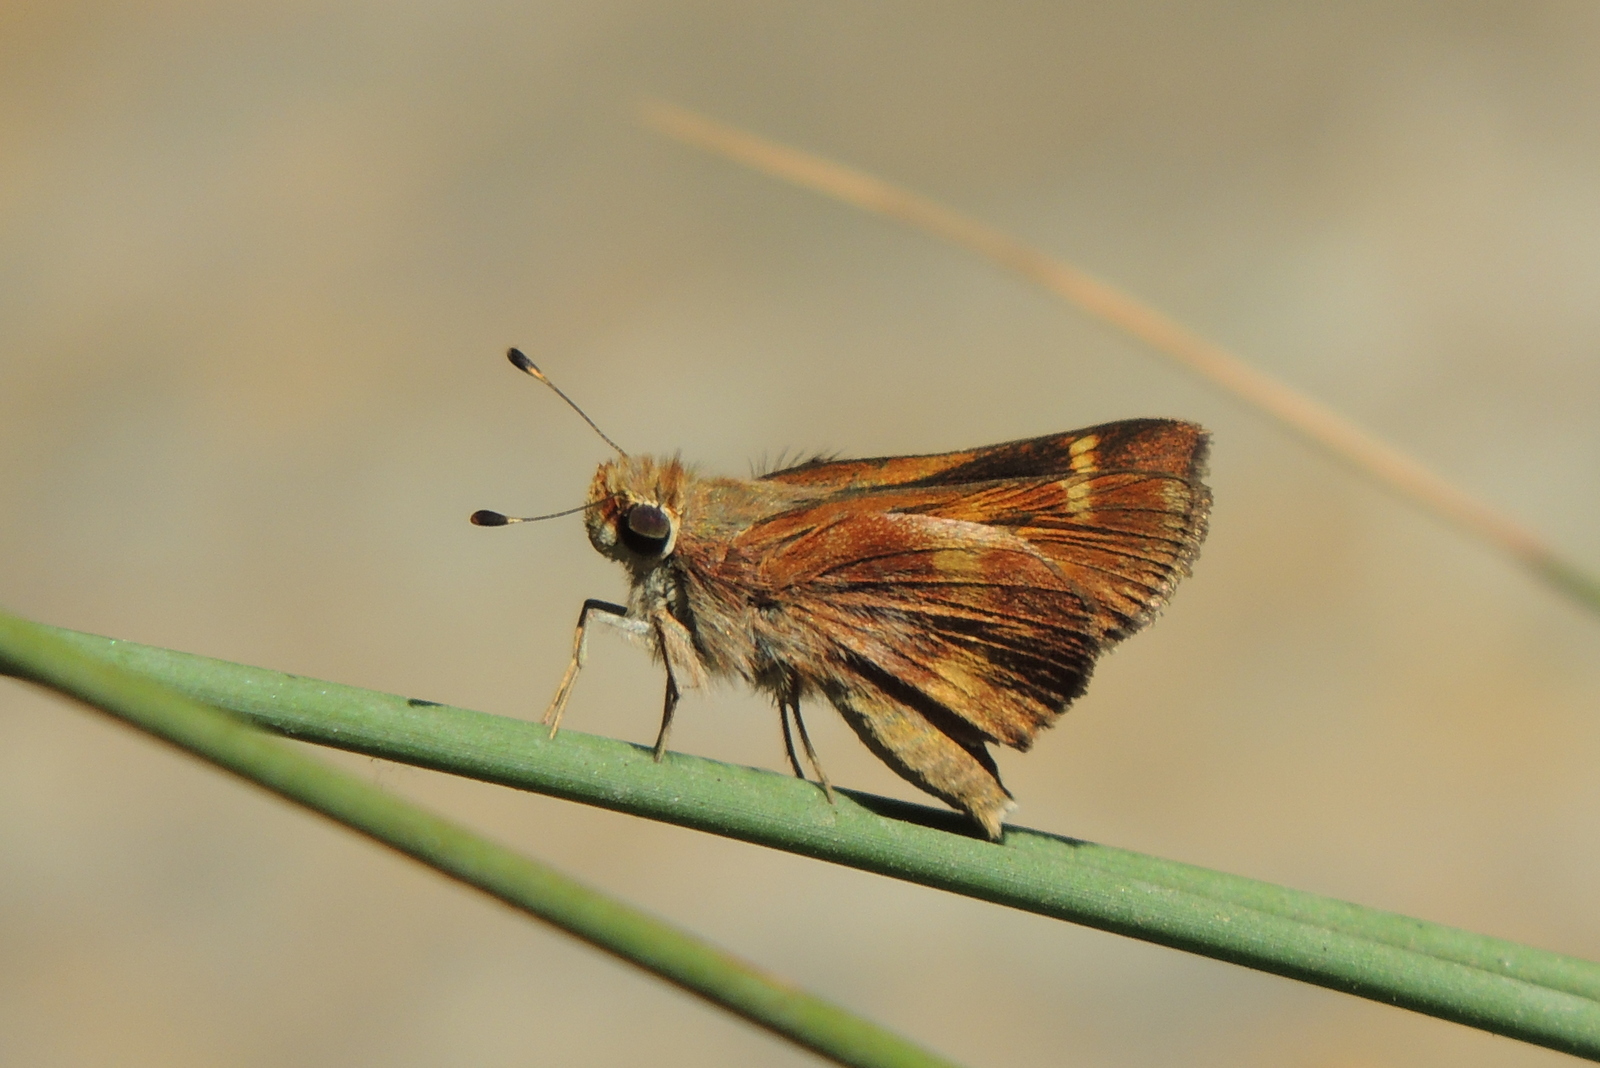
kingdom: Animalia
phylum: Arthropoda
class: Insecta
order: Lepidoptera
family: Hesperiidae
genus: Lon
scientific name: Lon melane
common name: Umber skipper
